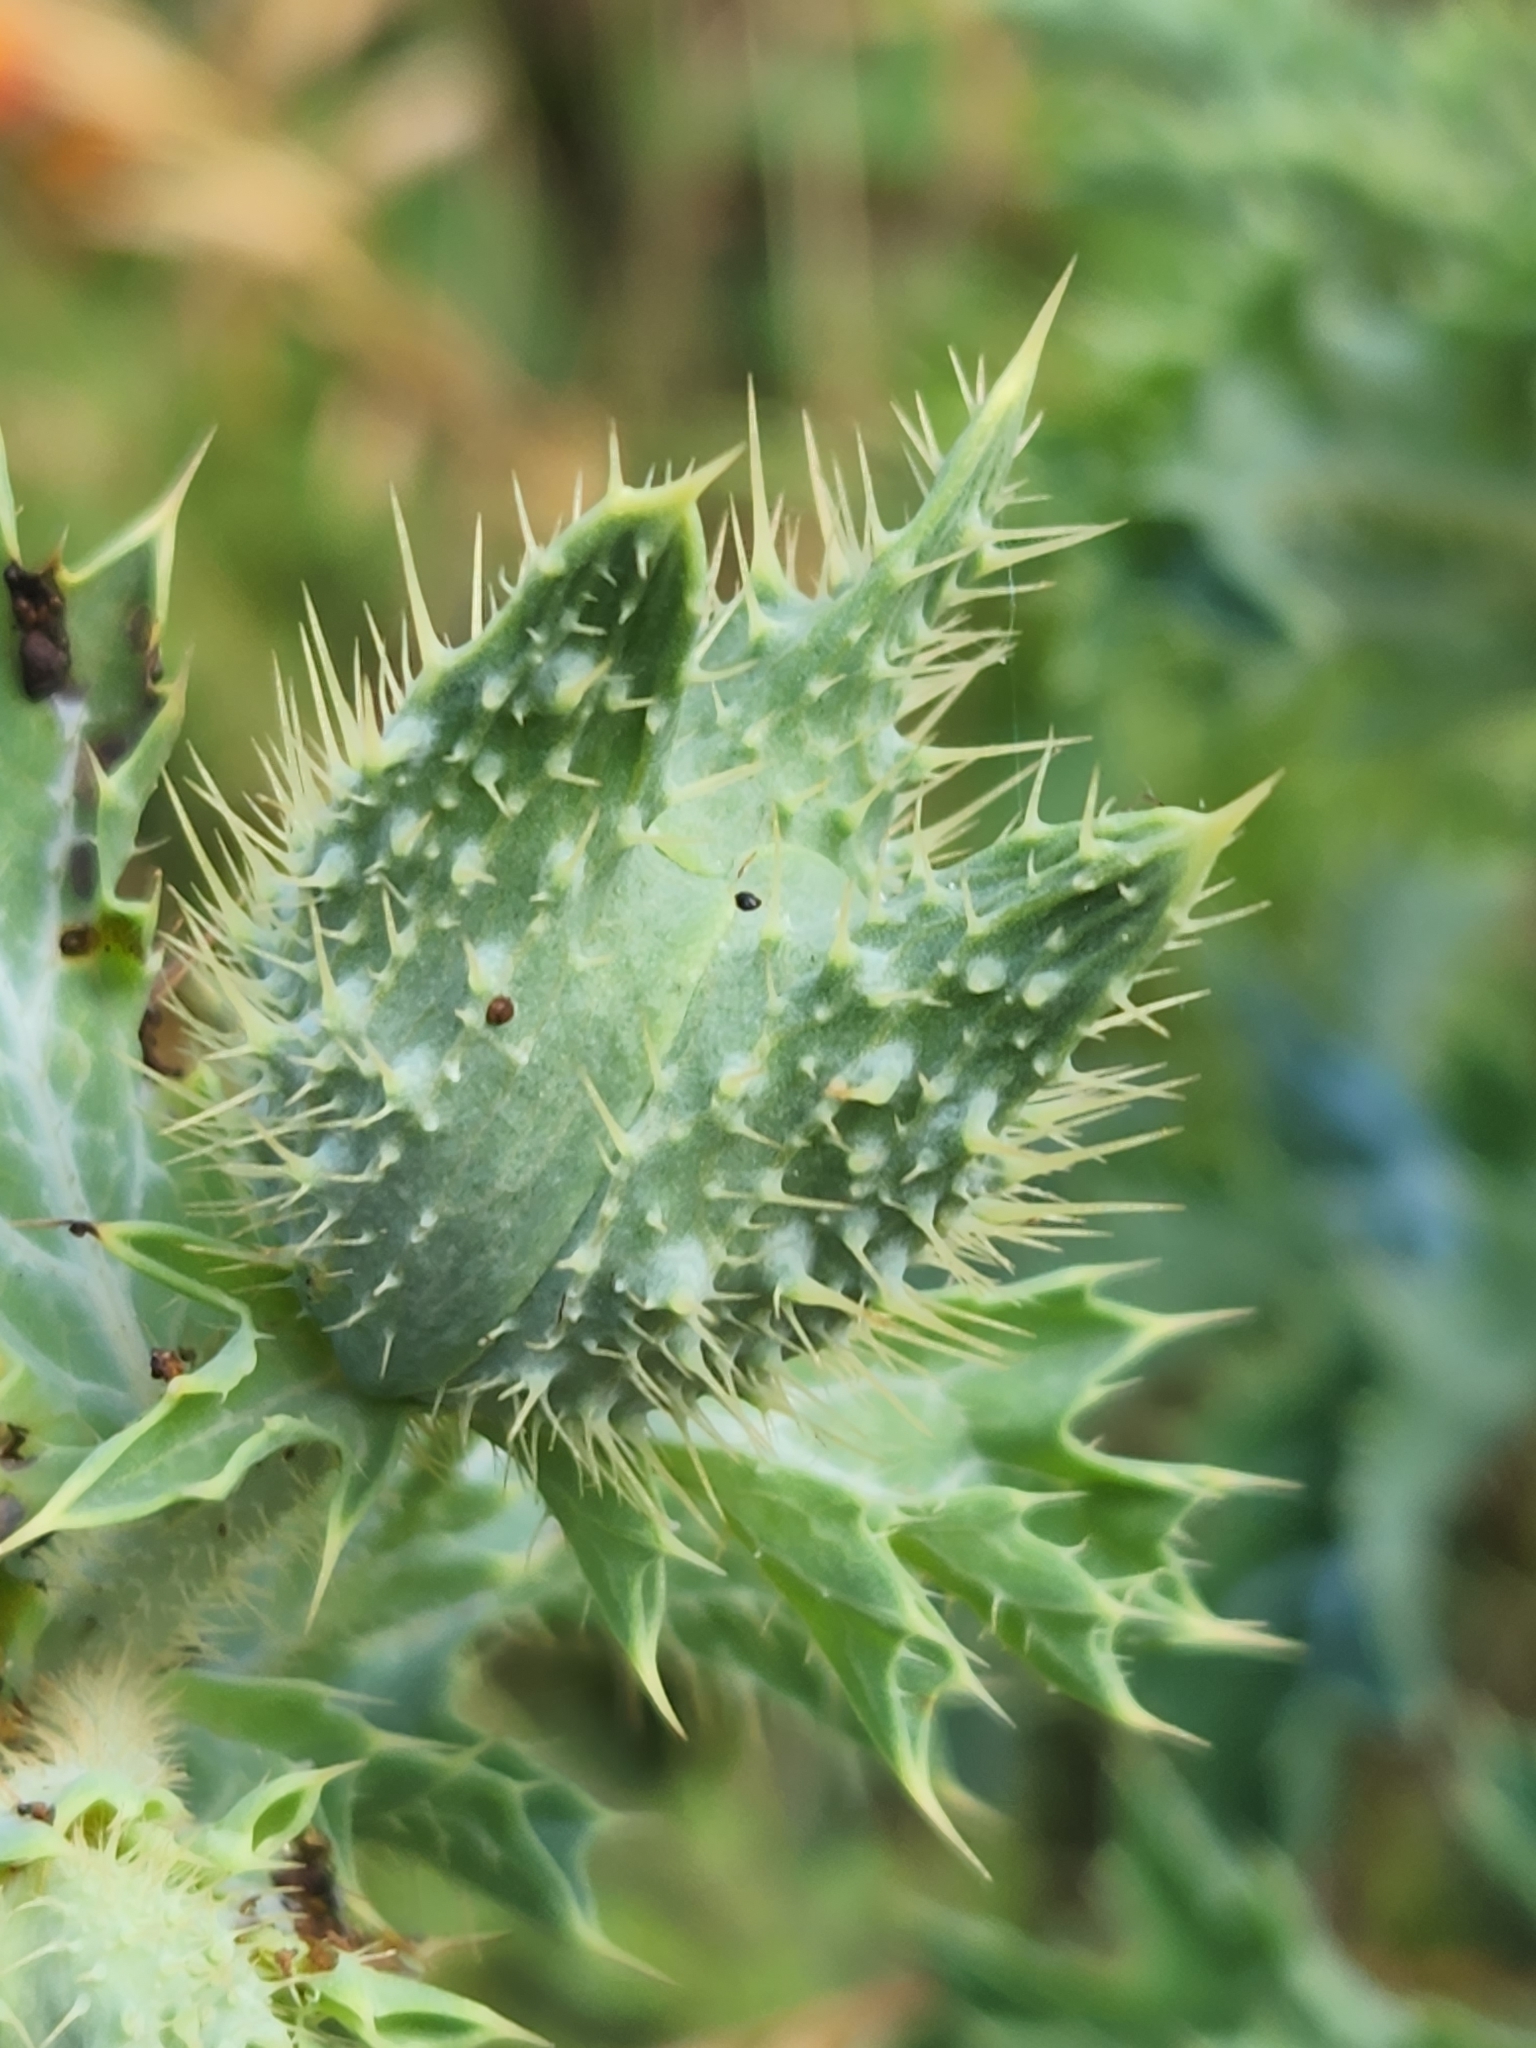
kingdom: Plantae
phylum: Tracheophyta
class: Magnoliopsida
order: Ranunculales
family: Papaveraceae
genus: Argemone
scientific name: Argemone aurantiaca
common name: Texas prickly-poppy
